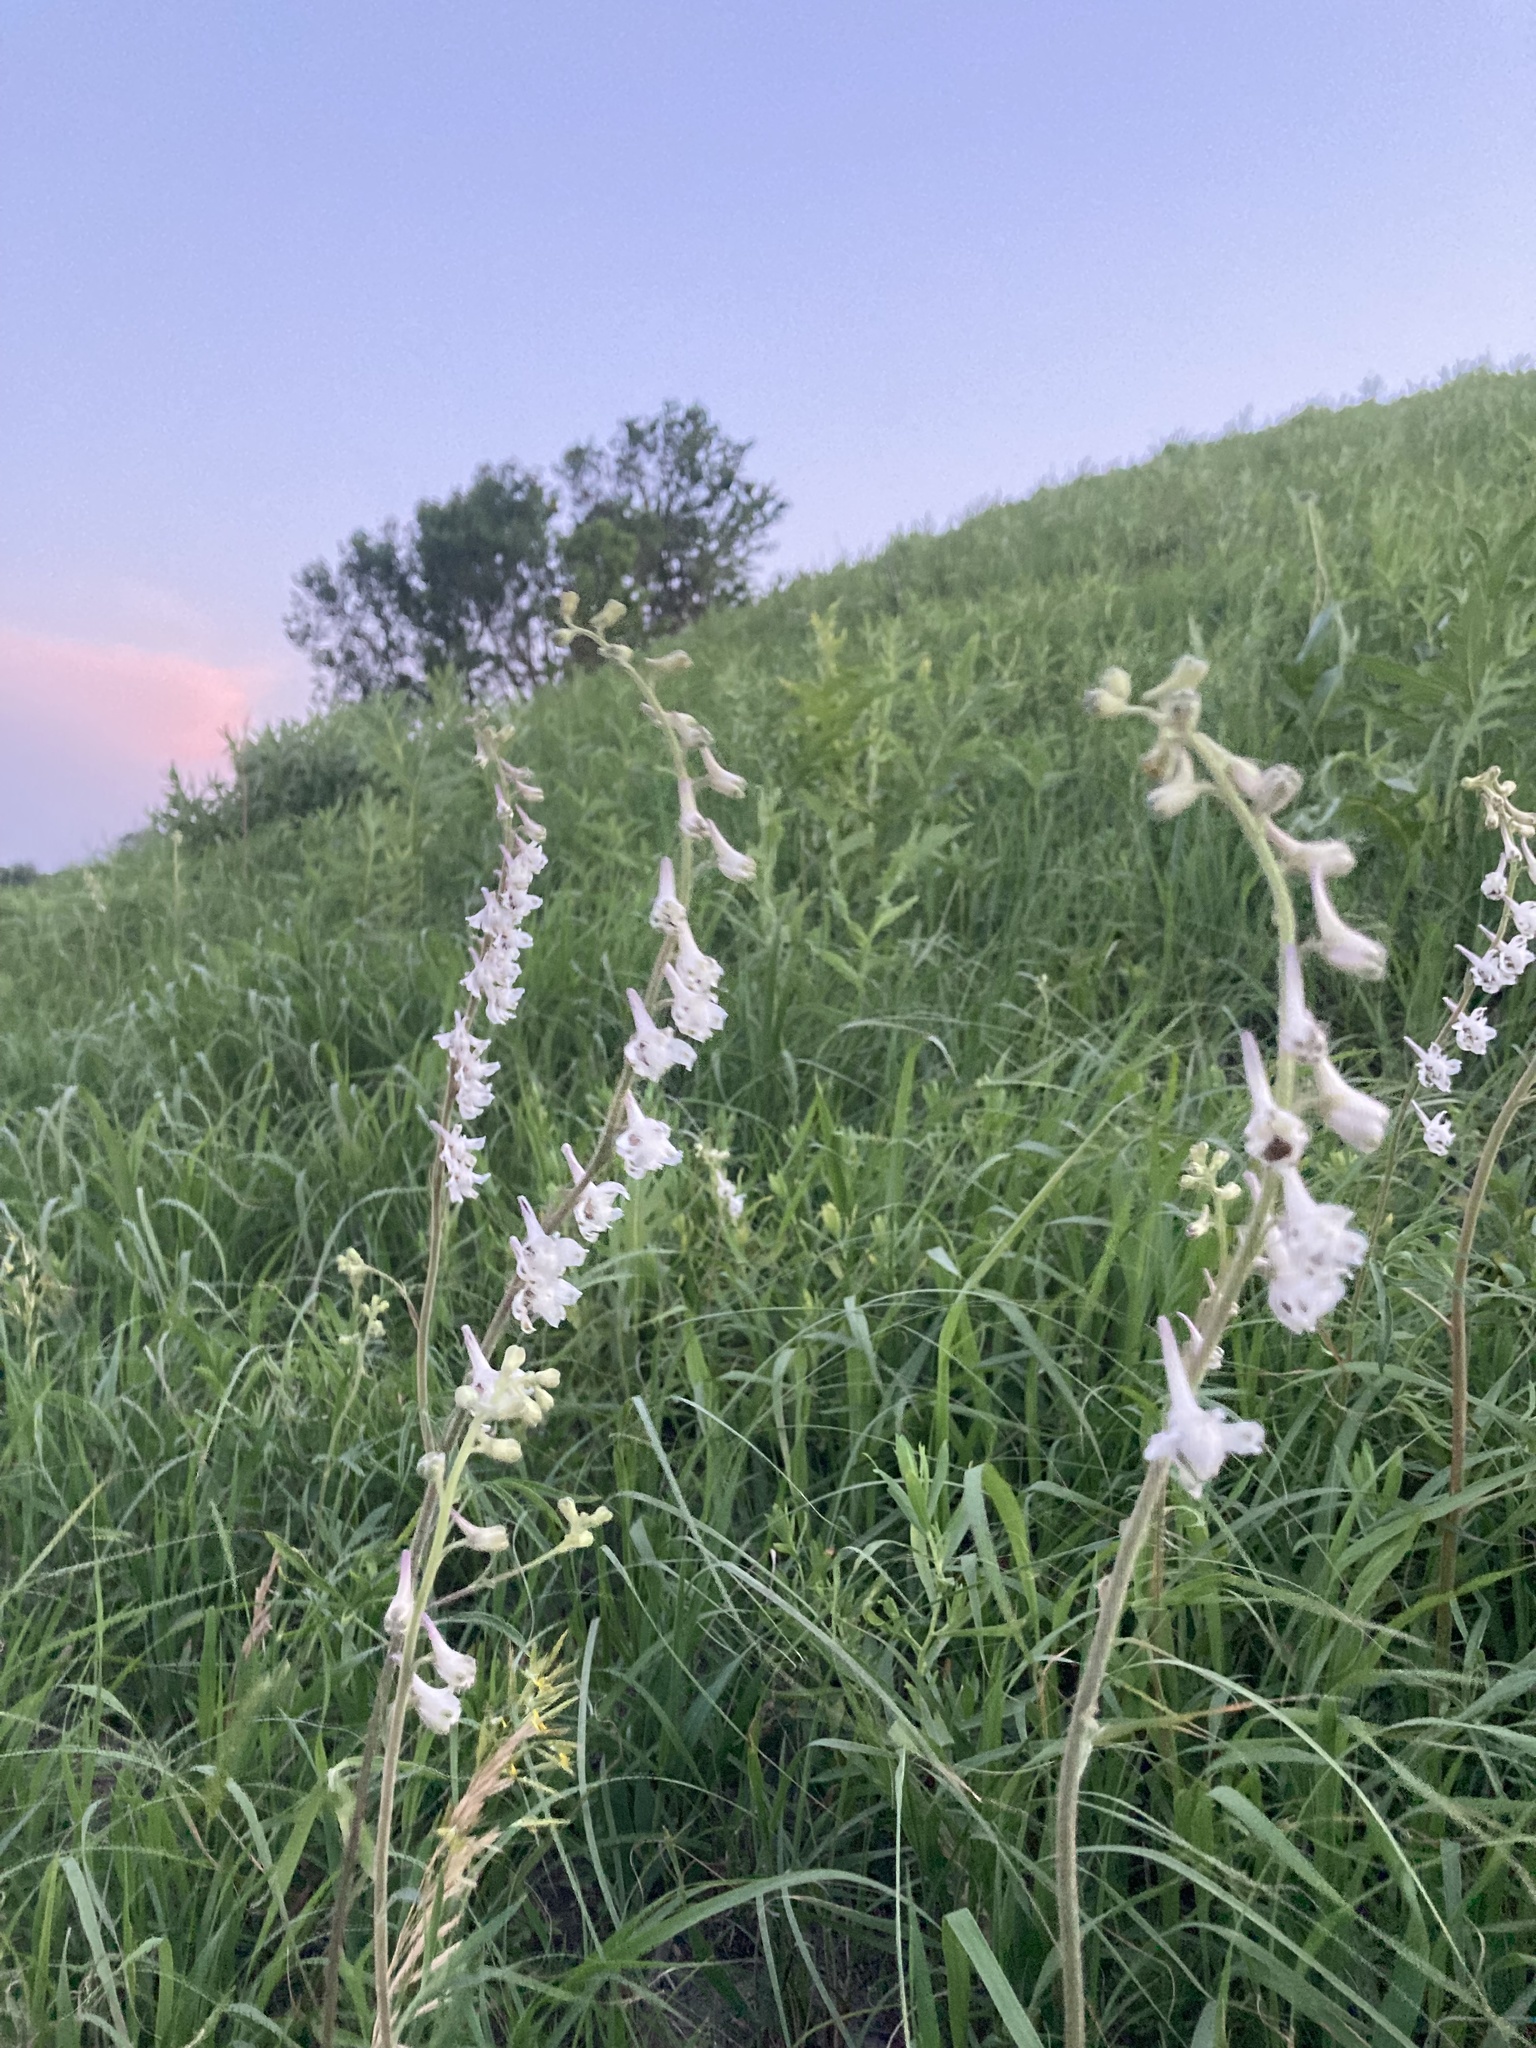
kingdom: Plantae
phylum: Tracheophyta
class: Magnoliopsida
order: Ranunculales
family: Ranunculaceae
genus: Delphinium
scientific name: Delphinium carolinianum
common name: Carolina larkspur
